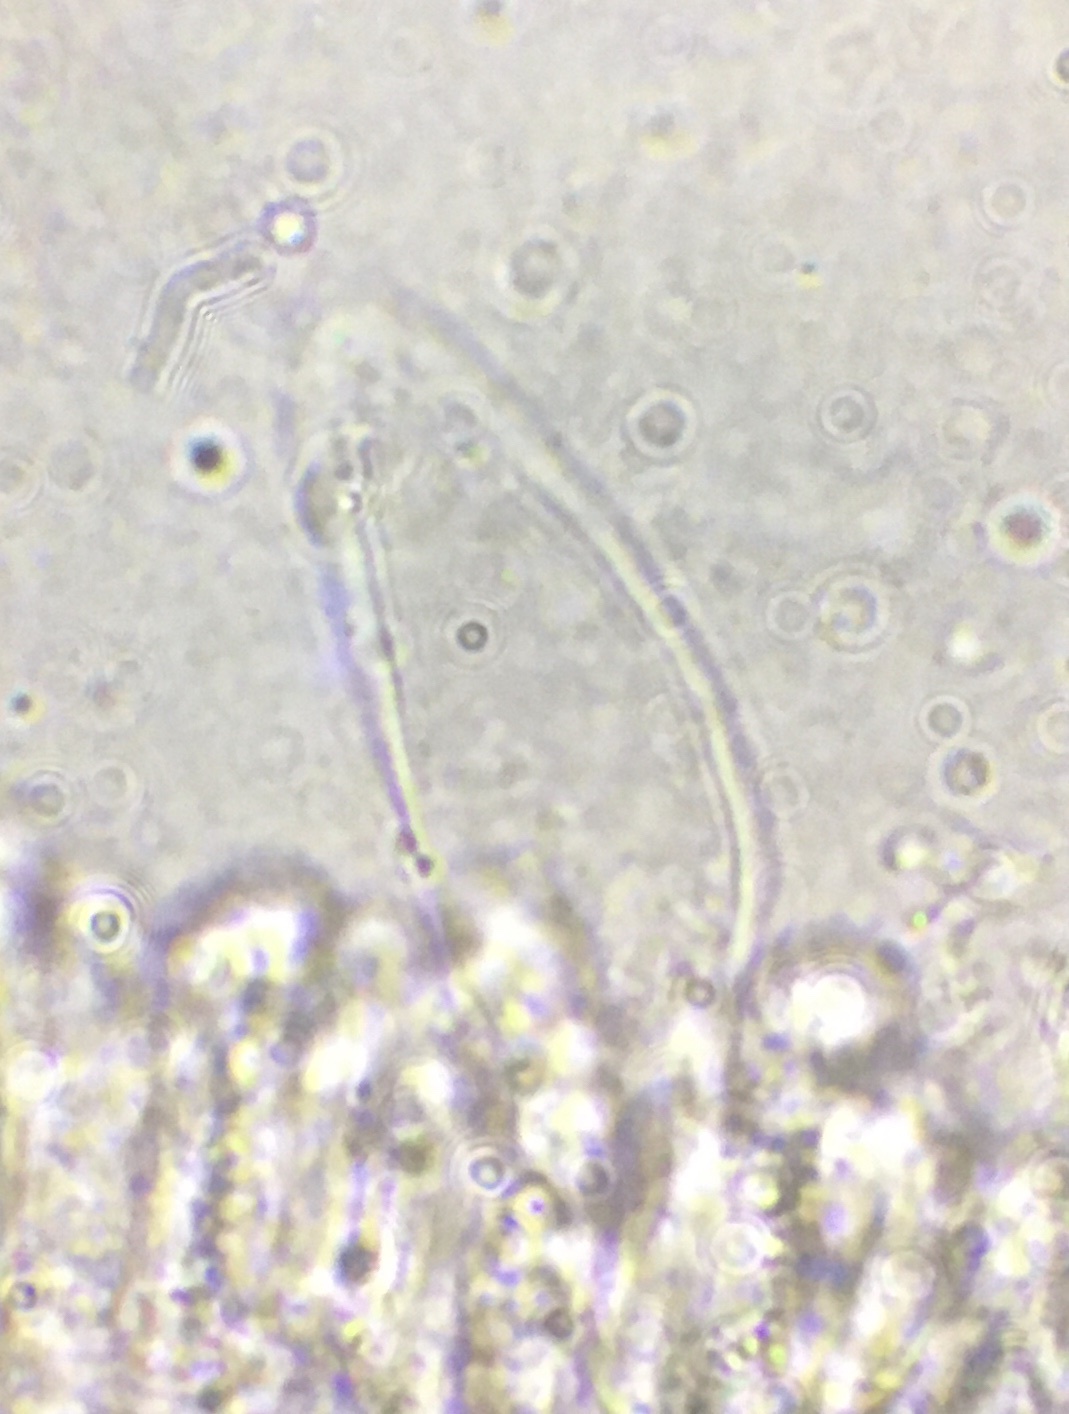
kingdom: Fungi
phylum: Basidiomycota
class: Agaricomycetes
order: Agaricales
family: Pluteaceae
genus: Pluteus
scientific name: Pluteus podospileus
